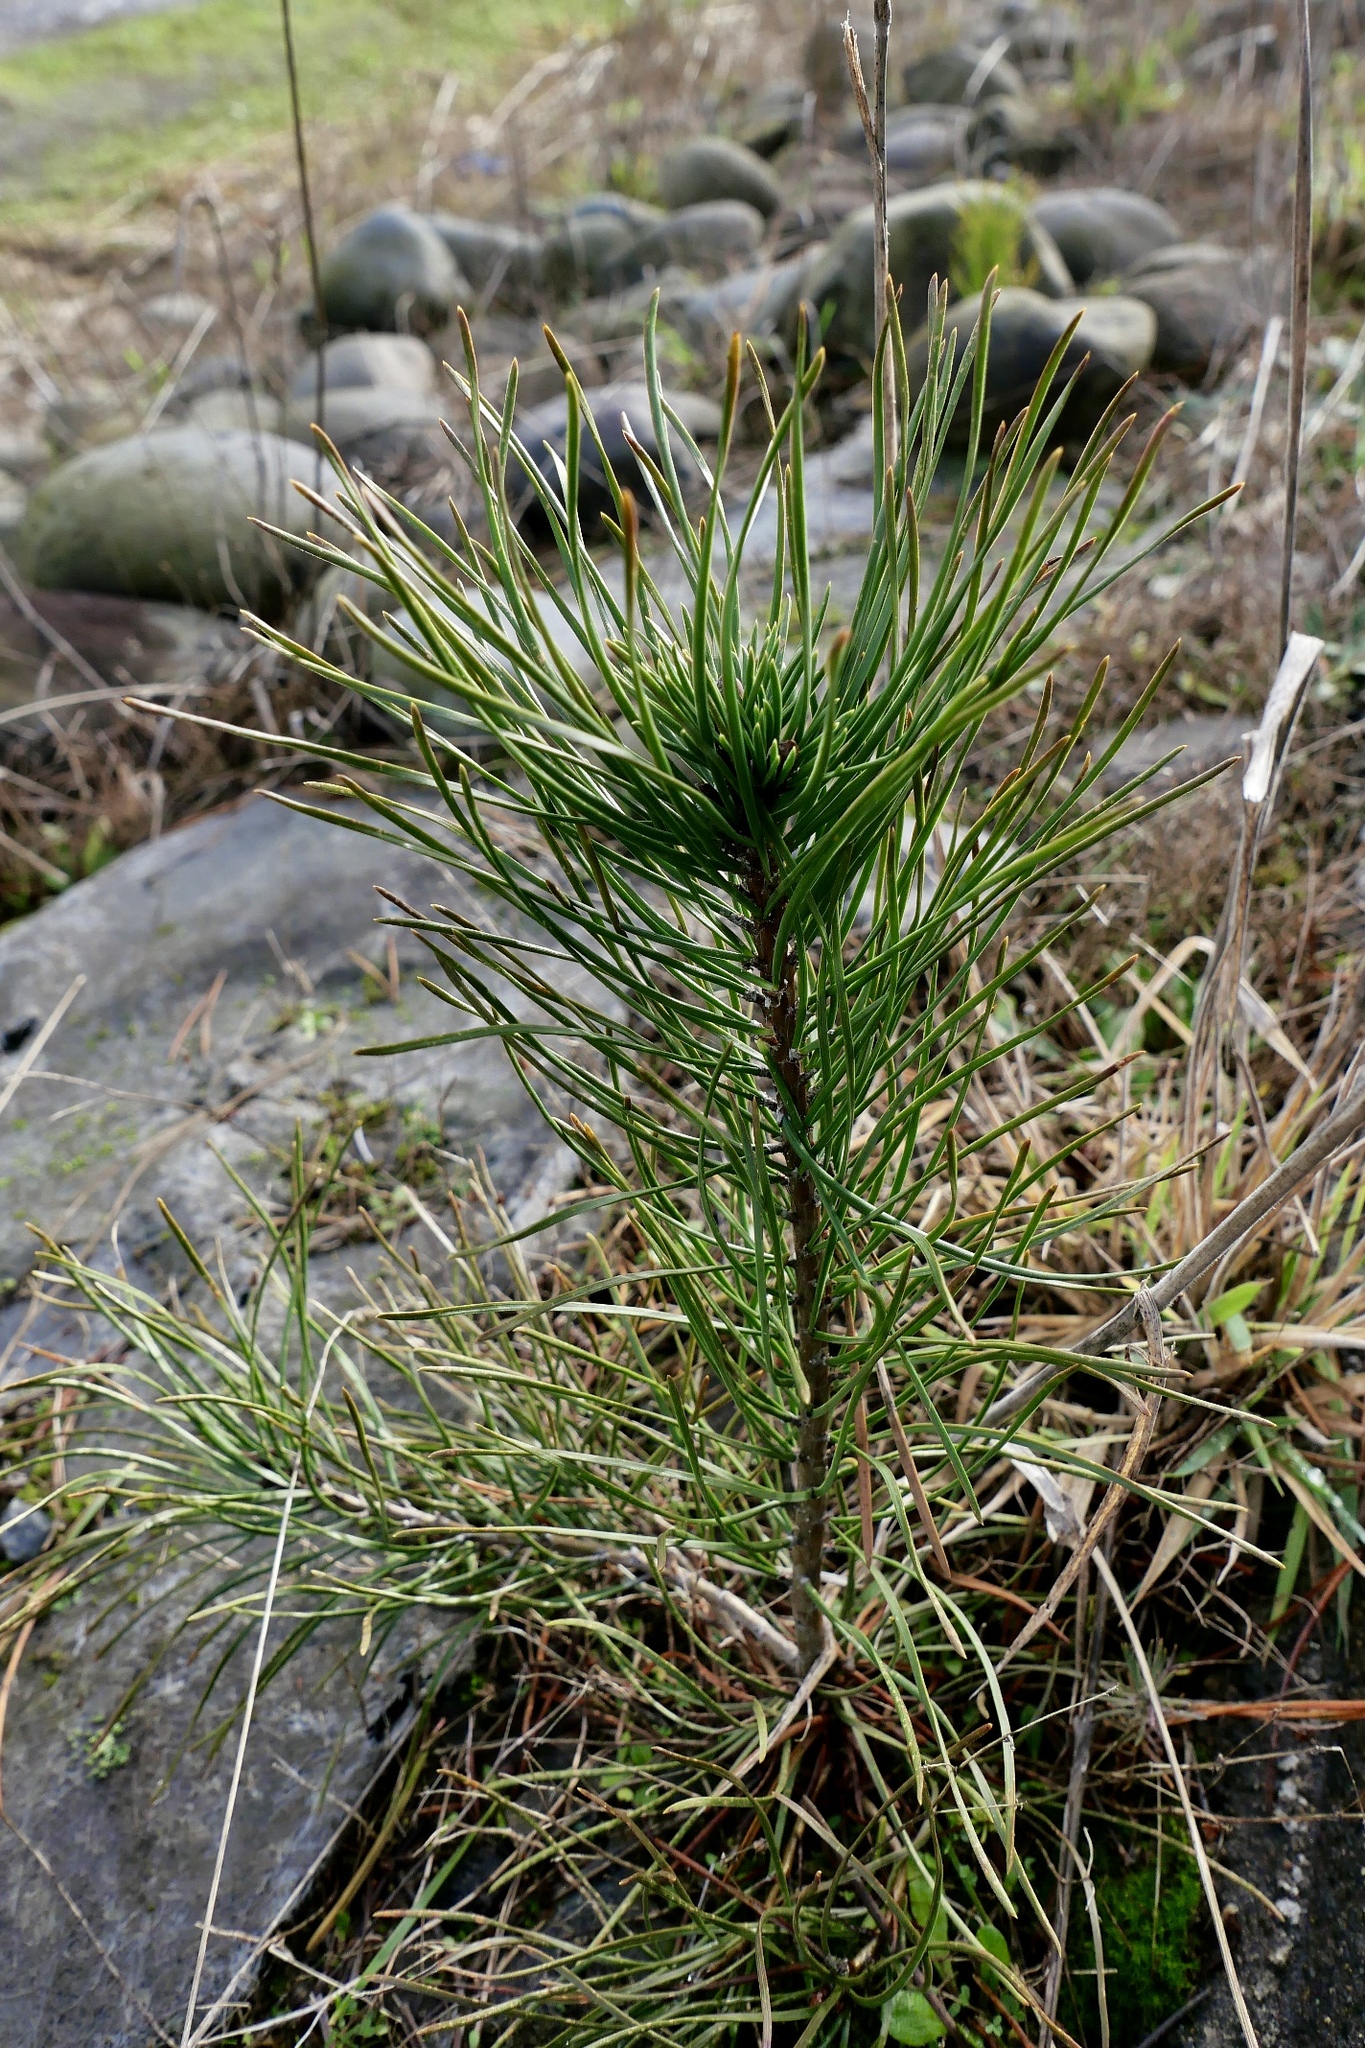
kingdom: Plantae
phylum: Tracheophyta
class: Pinopsida
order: Pinales
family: Pinaceae
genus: Pinus
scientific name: Pinus contorta
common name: Lodgepole pine
